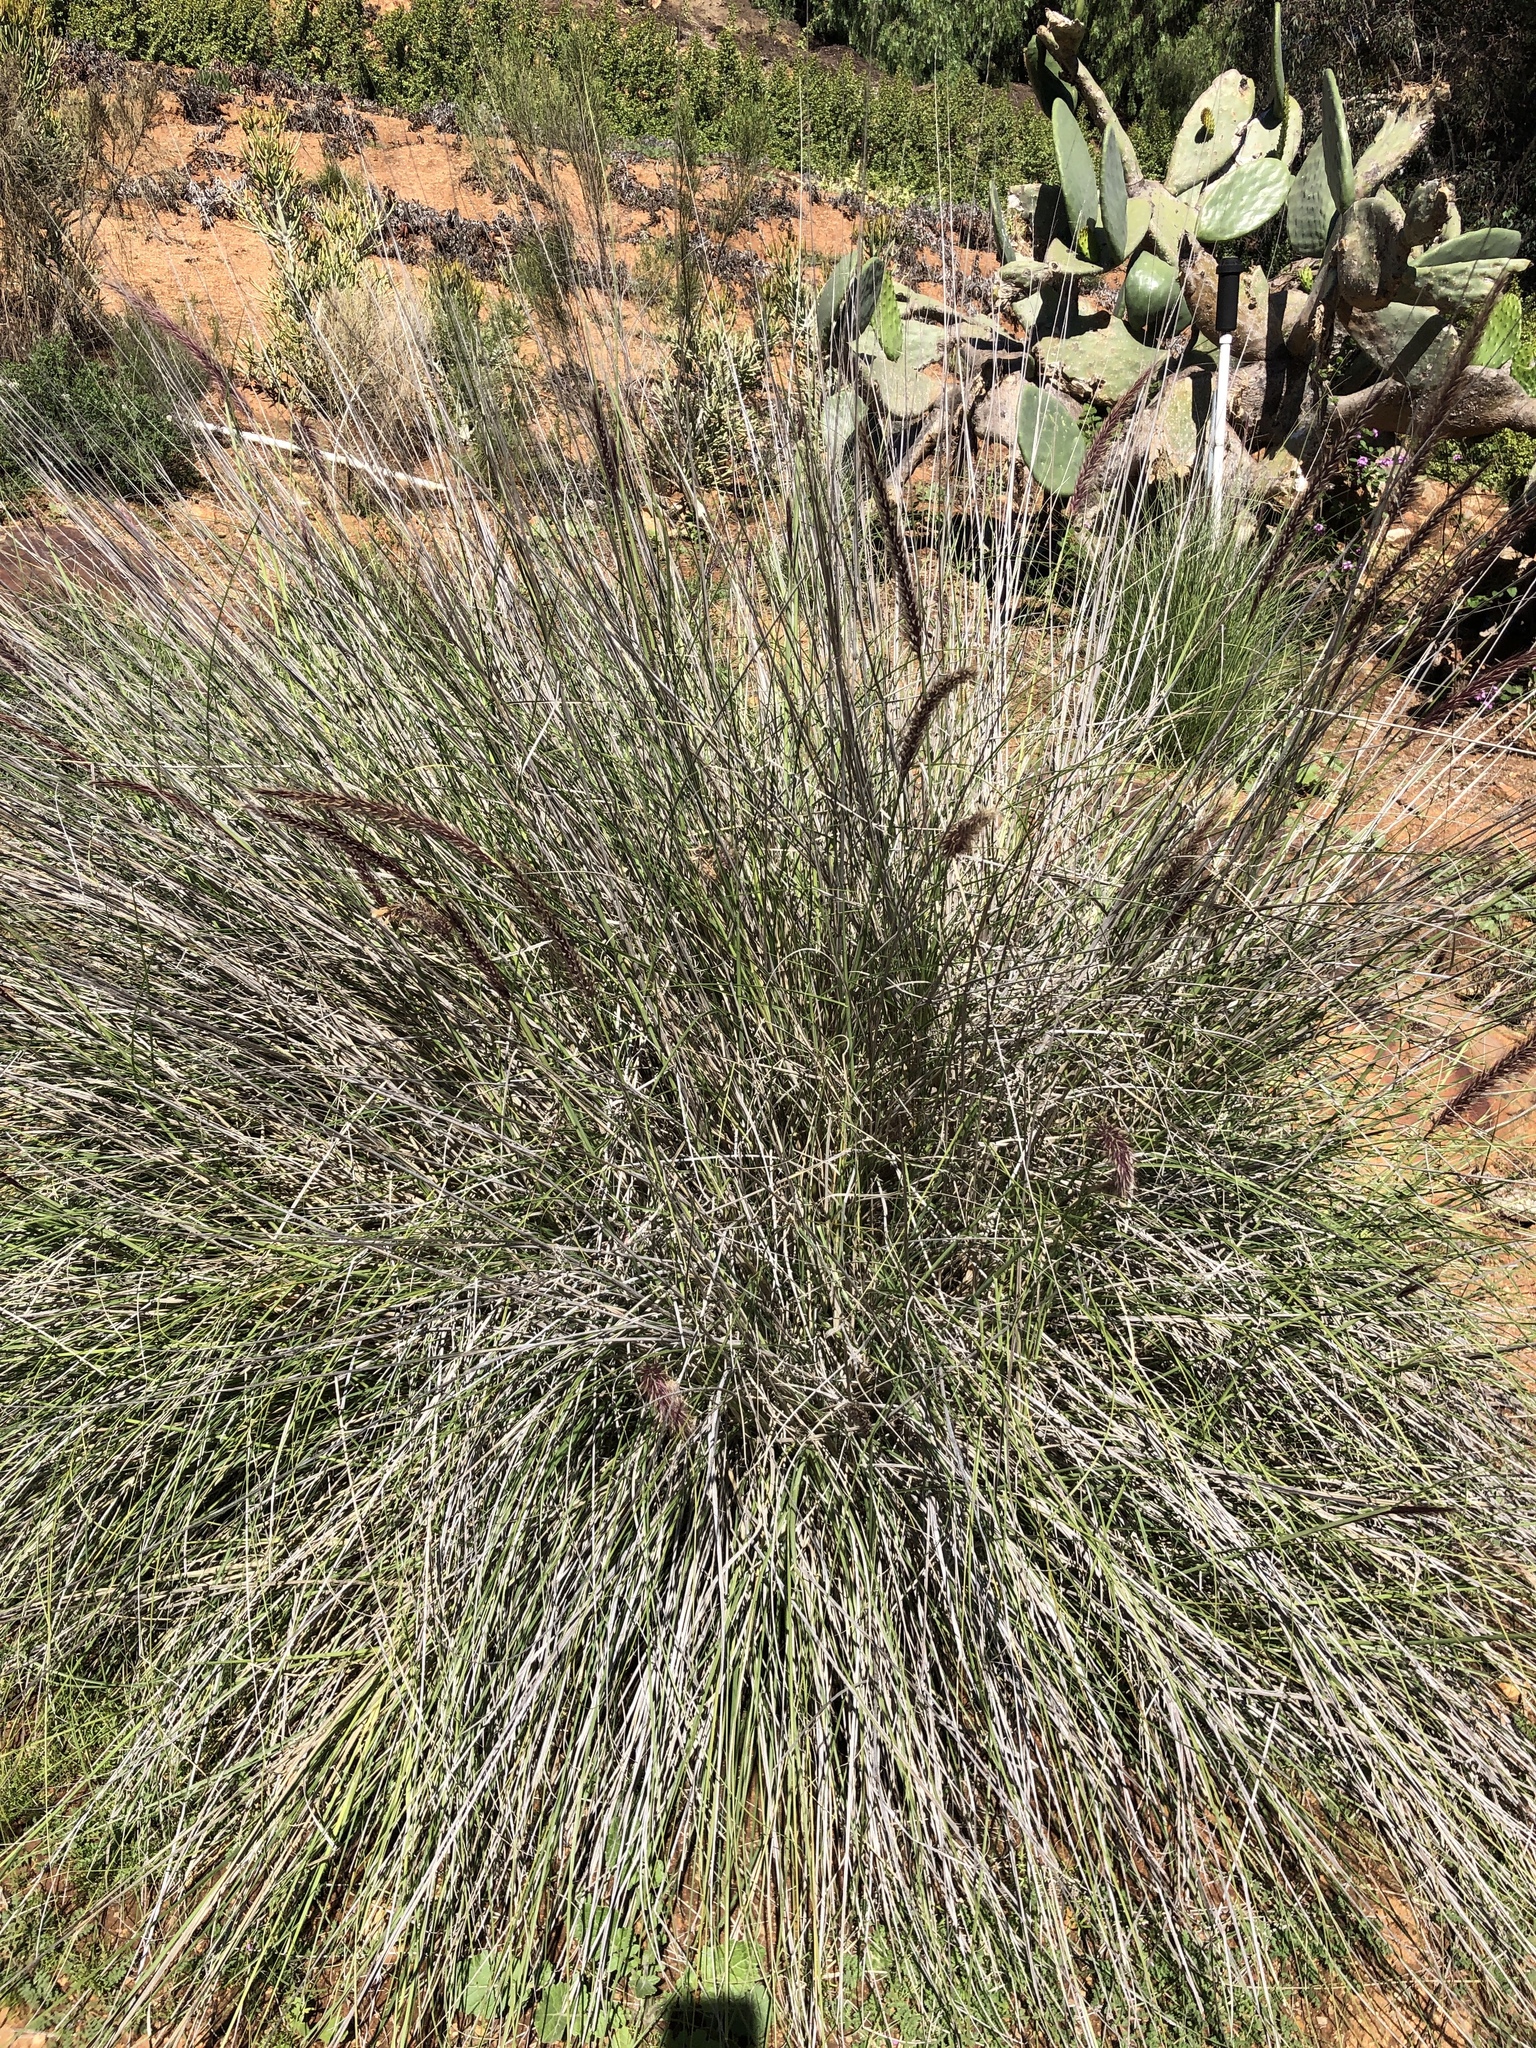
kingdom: Plantae
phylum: Tracheophyta
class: Liliopsida
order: Poales
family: Poaceae
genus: Cenchrus
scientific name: Cenchrus setaceus
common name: Crimson fountaingrass
